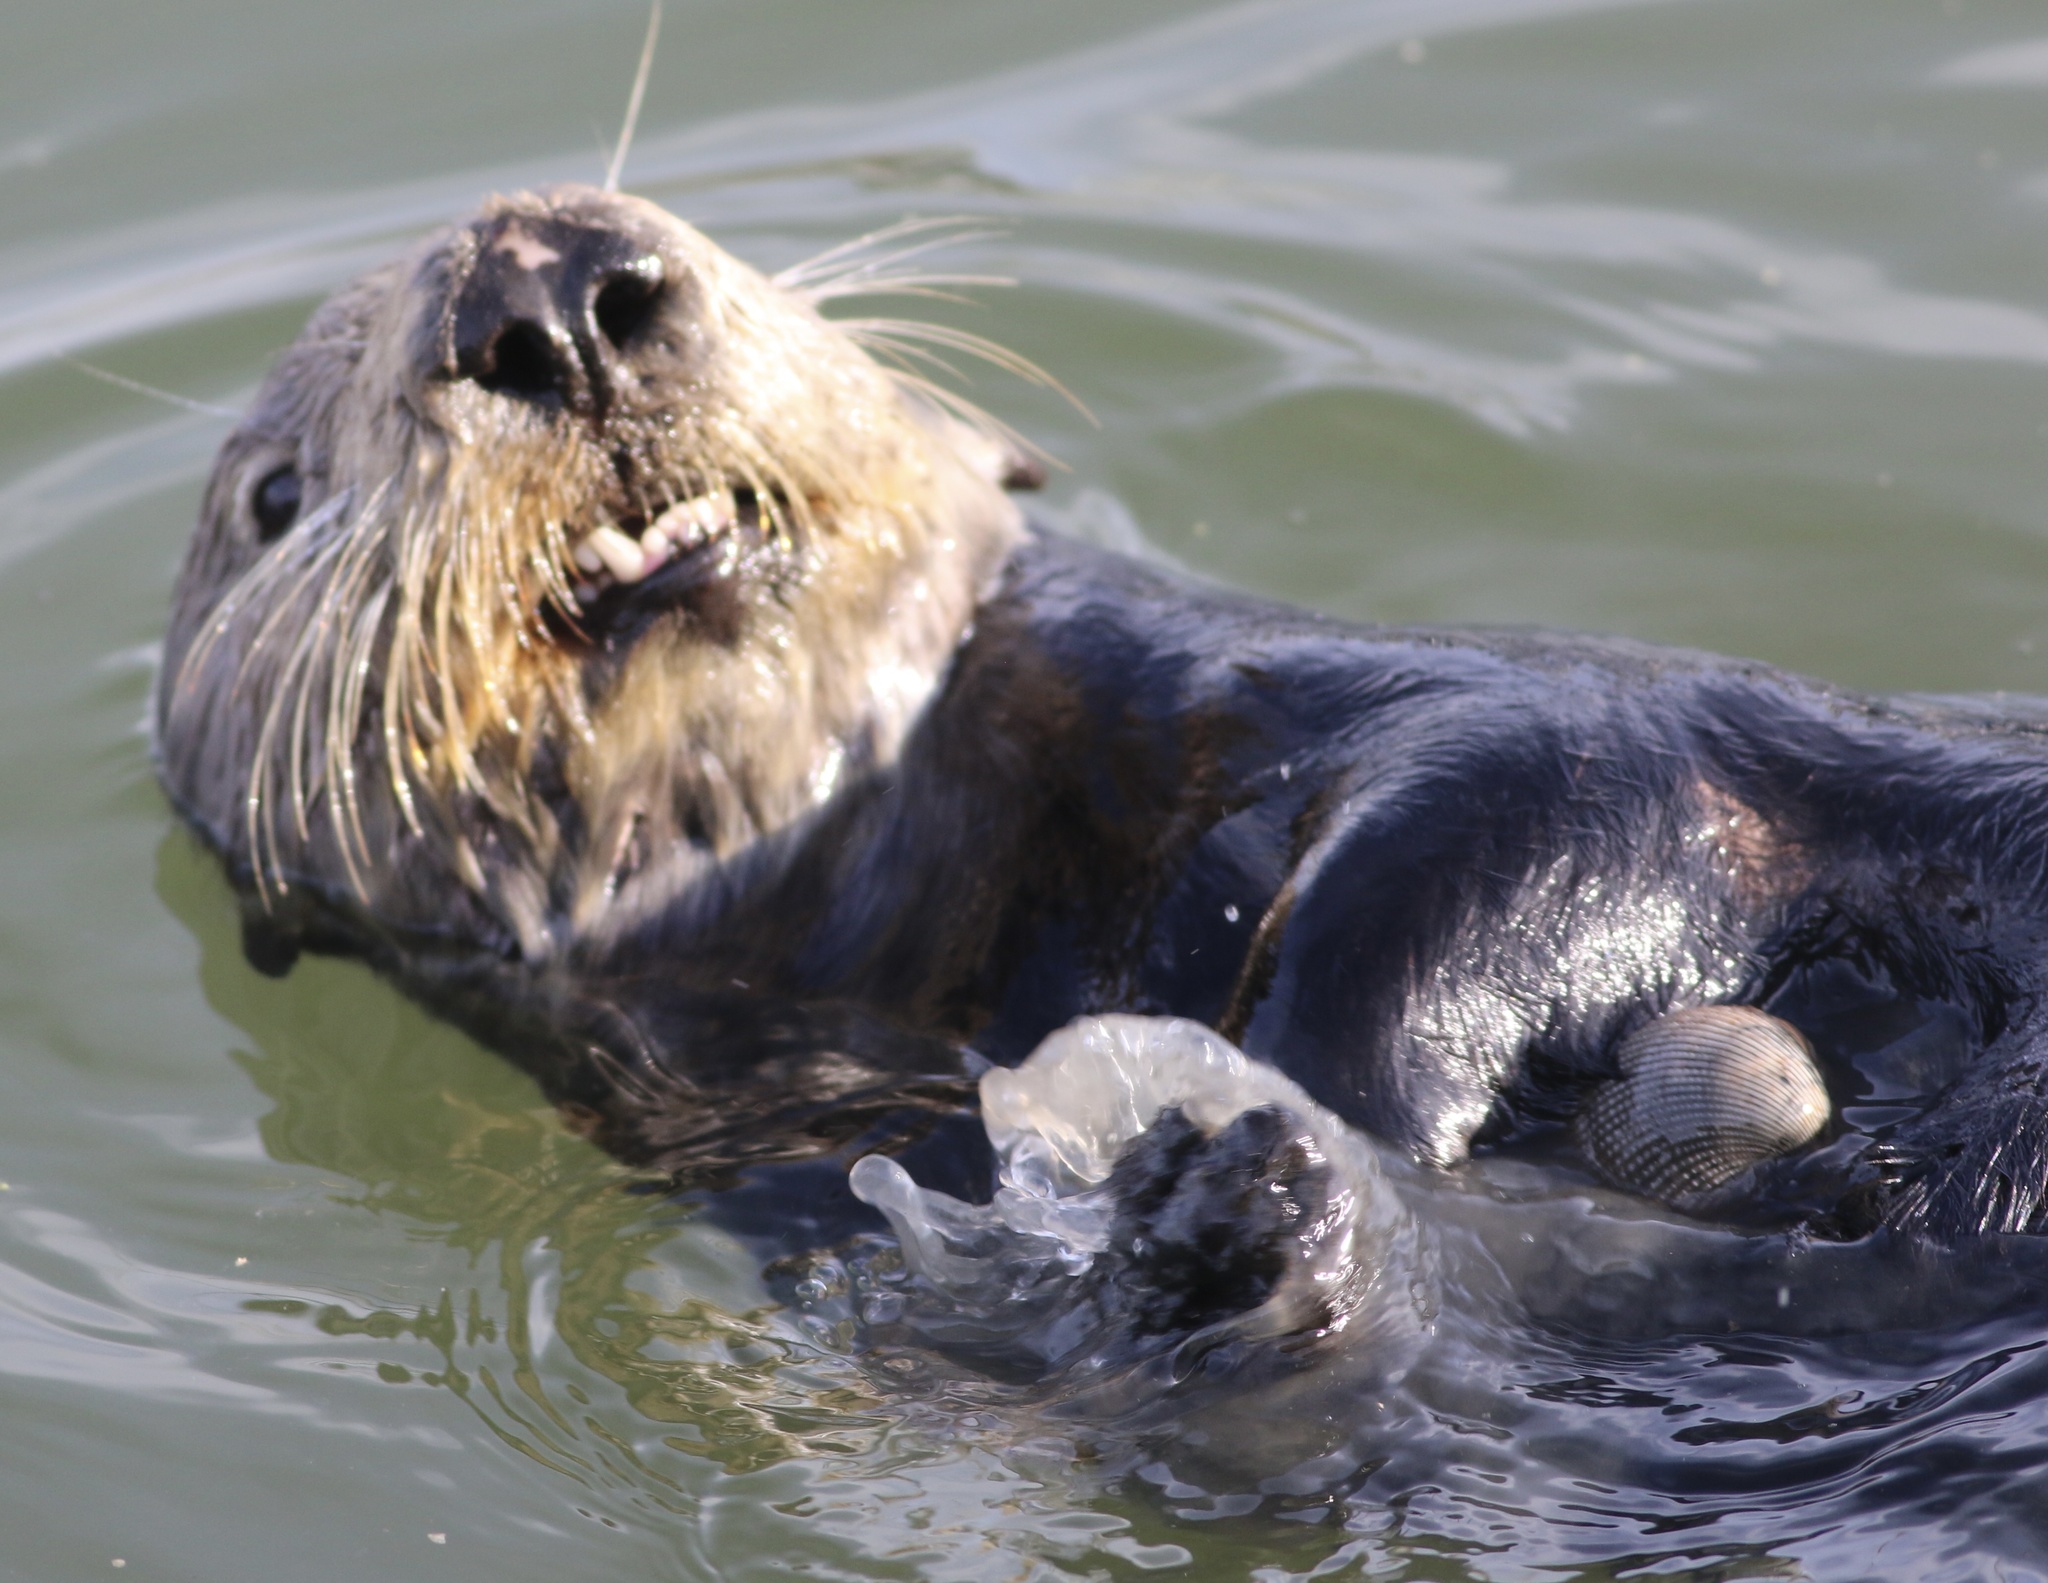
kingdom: Animalia
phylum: Mollusca
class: Bivalvia
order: Cardiida
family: Cardiidae
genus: Clinocardium
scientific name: Clinocardium nuttallii
